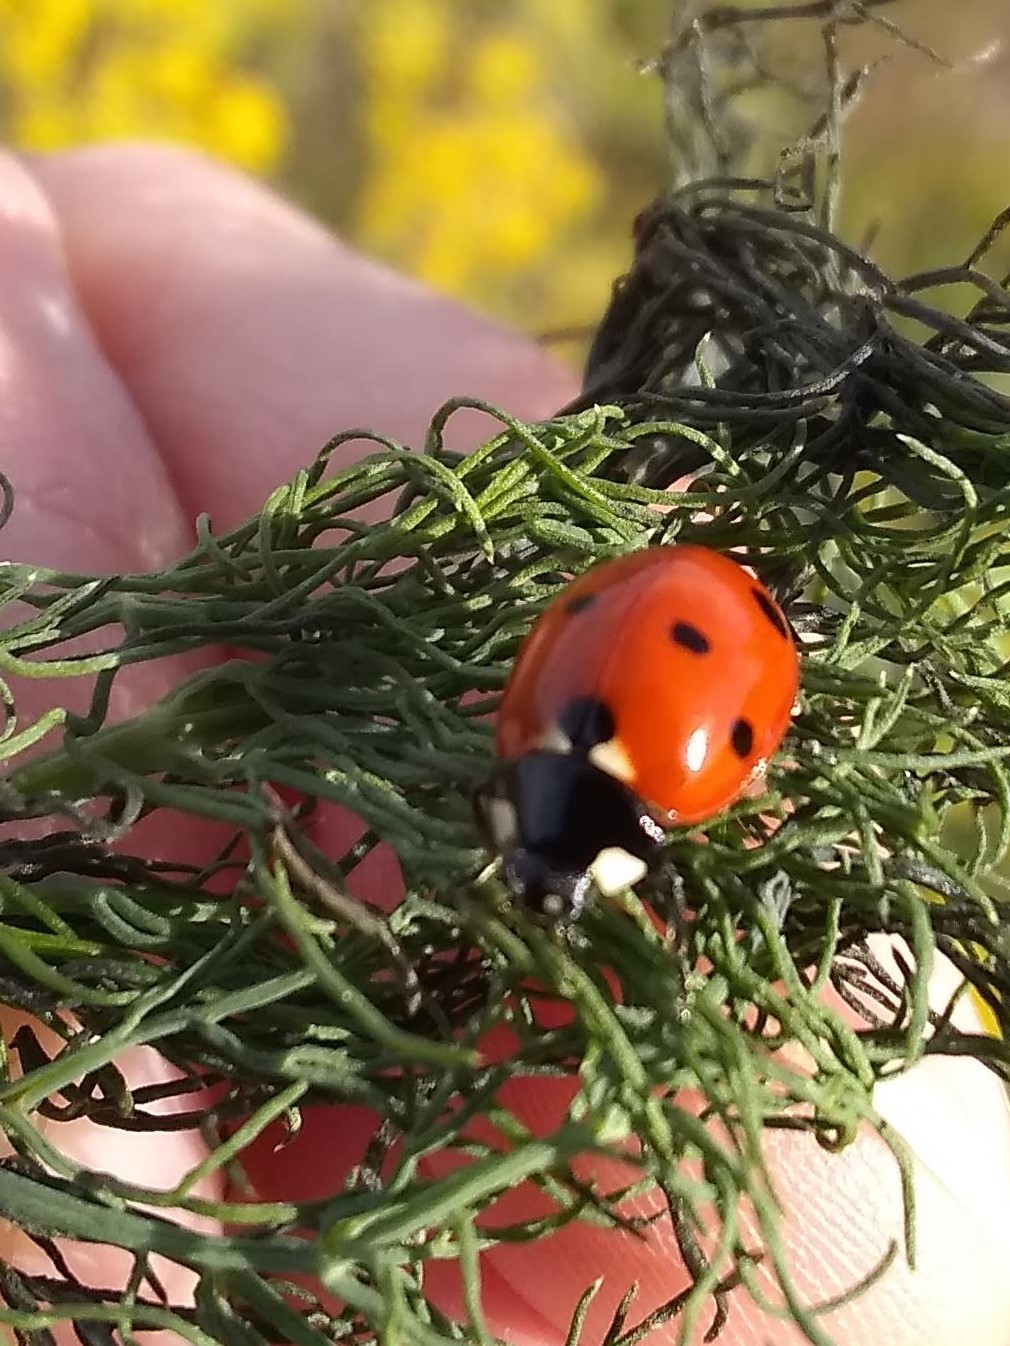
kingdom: Animalia
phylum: Arthropoda
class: Insecta
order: Coleoptera
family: Coccinellidae
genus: Coccinella
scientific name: Coccinella septempunctata
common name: Sevenspotted lady beetle
